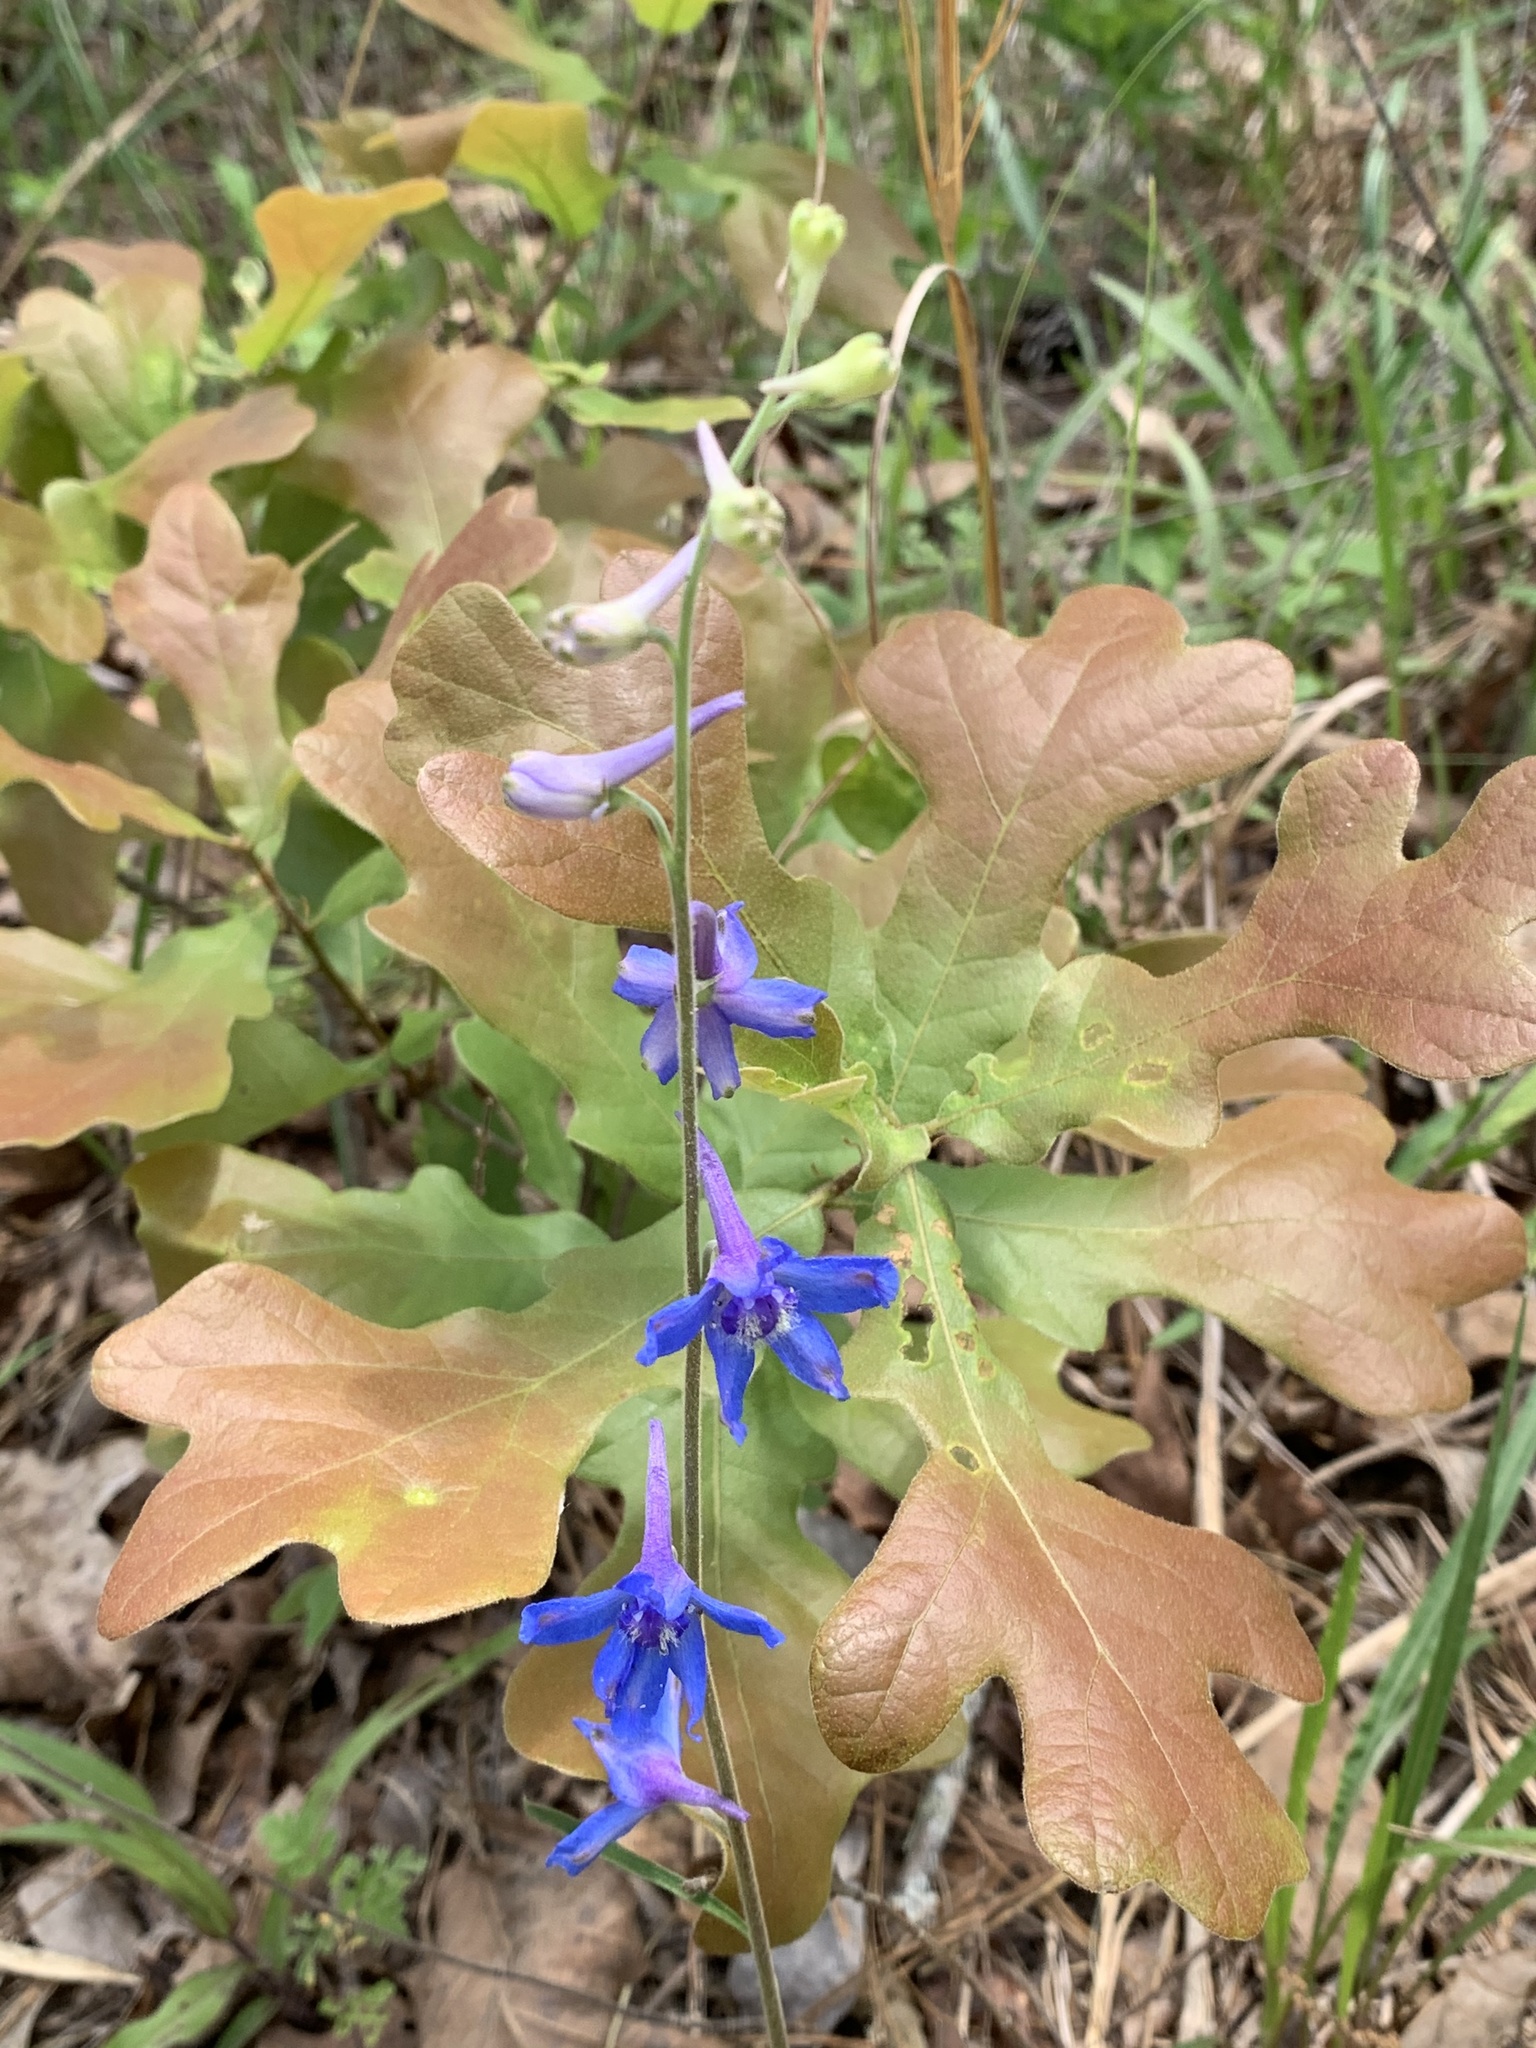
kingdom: Plantae
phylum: Tracheophyta
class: Magnoliopsida
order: Ranunculales
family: Ranunculaceae
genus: Delphinium
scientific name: Delphinium carolinianum
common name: Carolina larkspur
